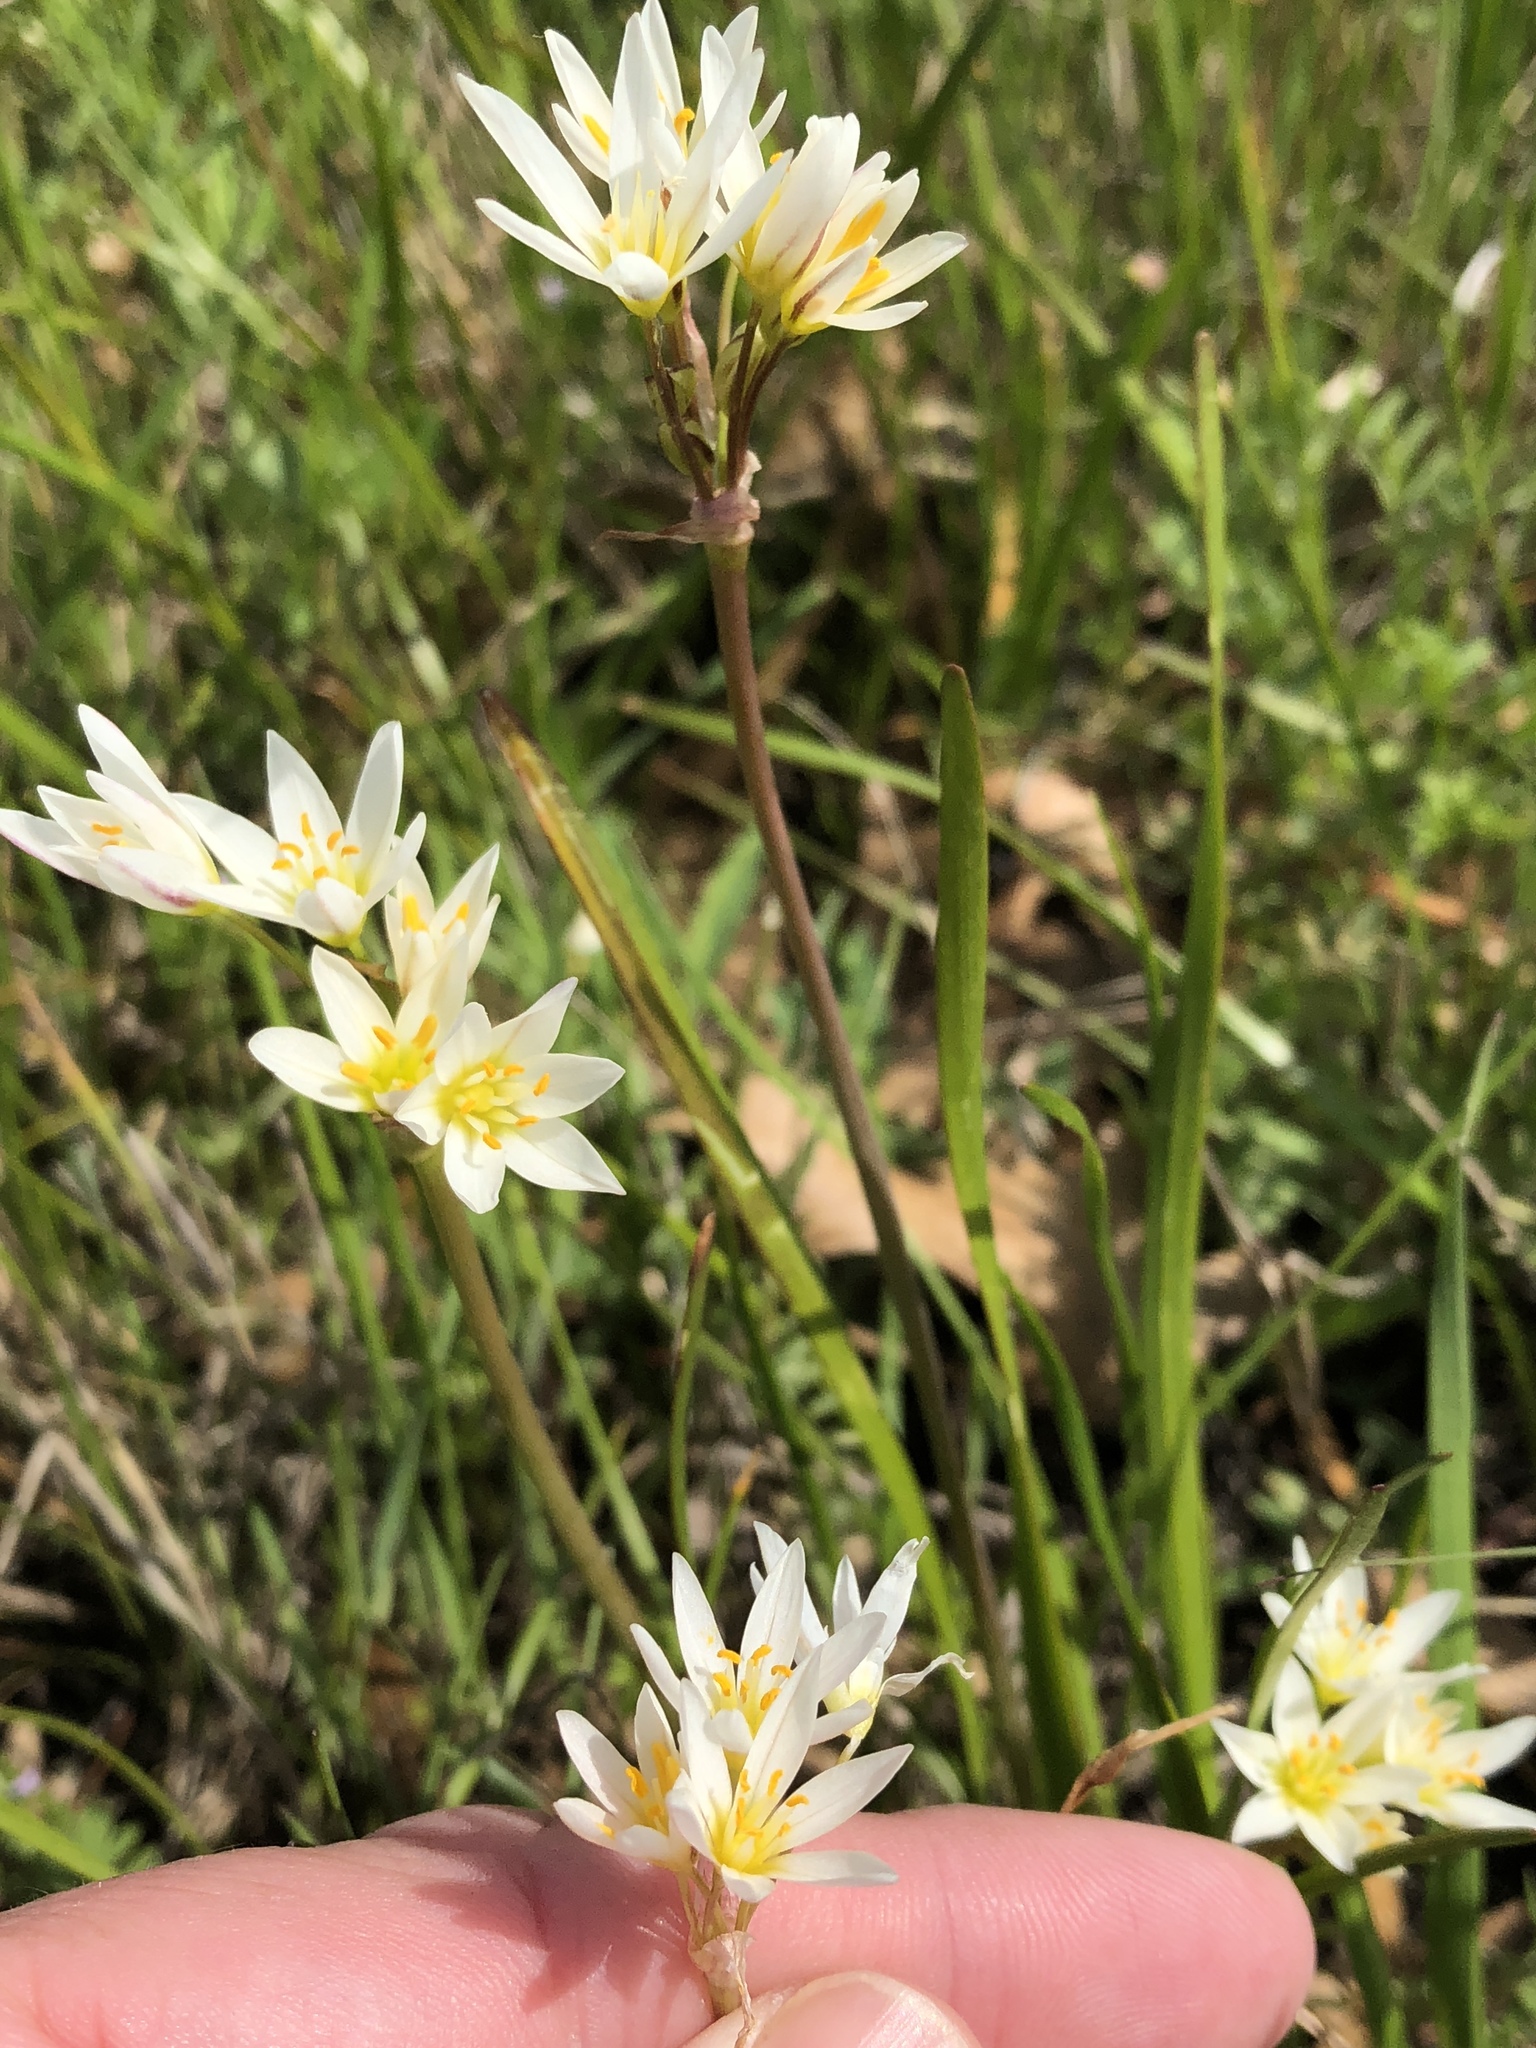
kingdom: Plantae
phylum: Tracheophyta
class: Liliopsida
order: Asparagales
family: Amaryllidaceae
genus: Nothoscordum
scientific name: Nothoscordum bivalve
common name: Crow-poison
